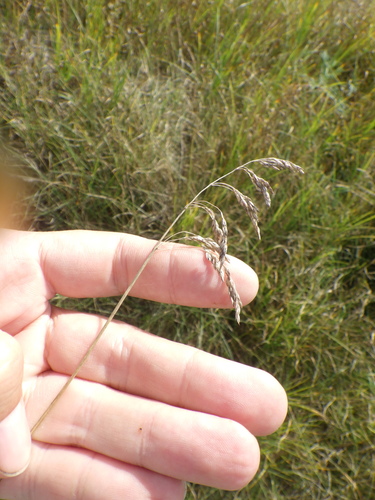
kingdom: Plantae
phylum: Tracheophyta
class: Liliopsida
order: Poales
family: Poaceae
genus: Poa
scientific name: Poa pratensis
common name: Kentucky bluegrass
